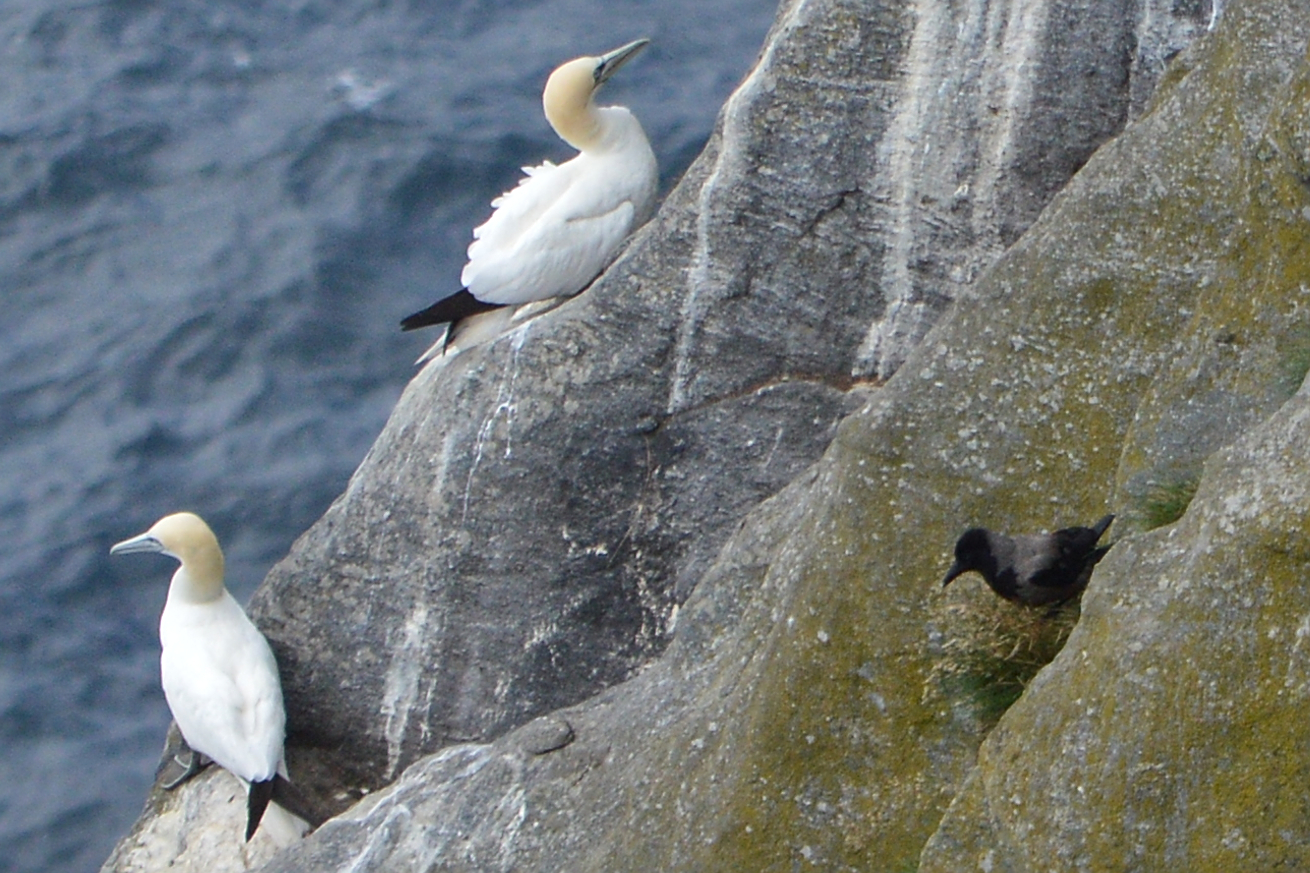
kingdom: Animalia
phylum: Chordata
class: Aves
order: Passeriformes
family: Corvidae
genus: Corvus
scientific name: Corvus cornix
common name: Hooded crow
